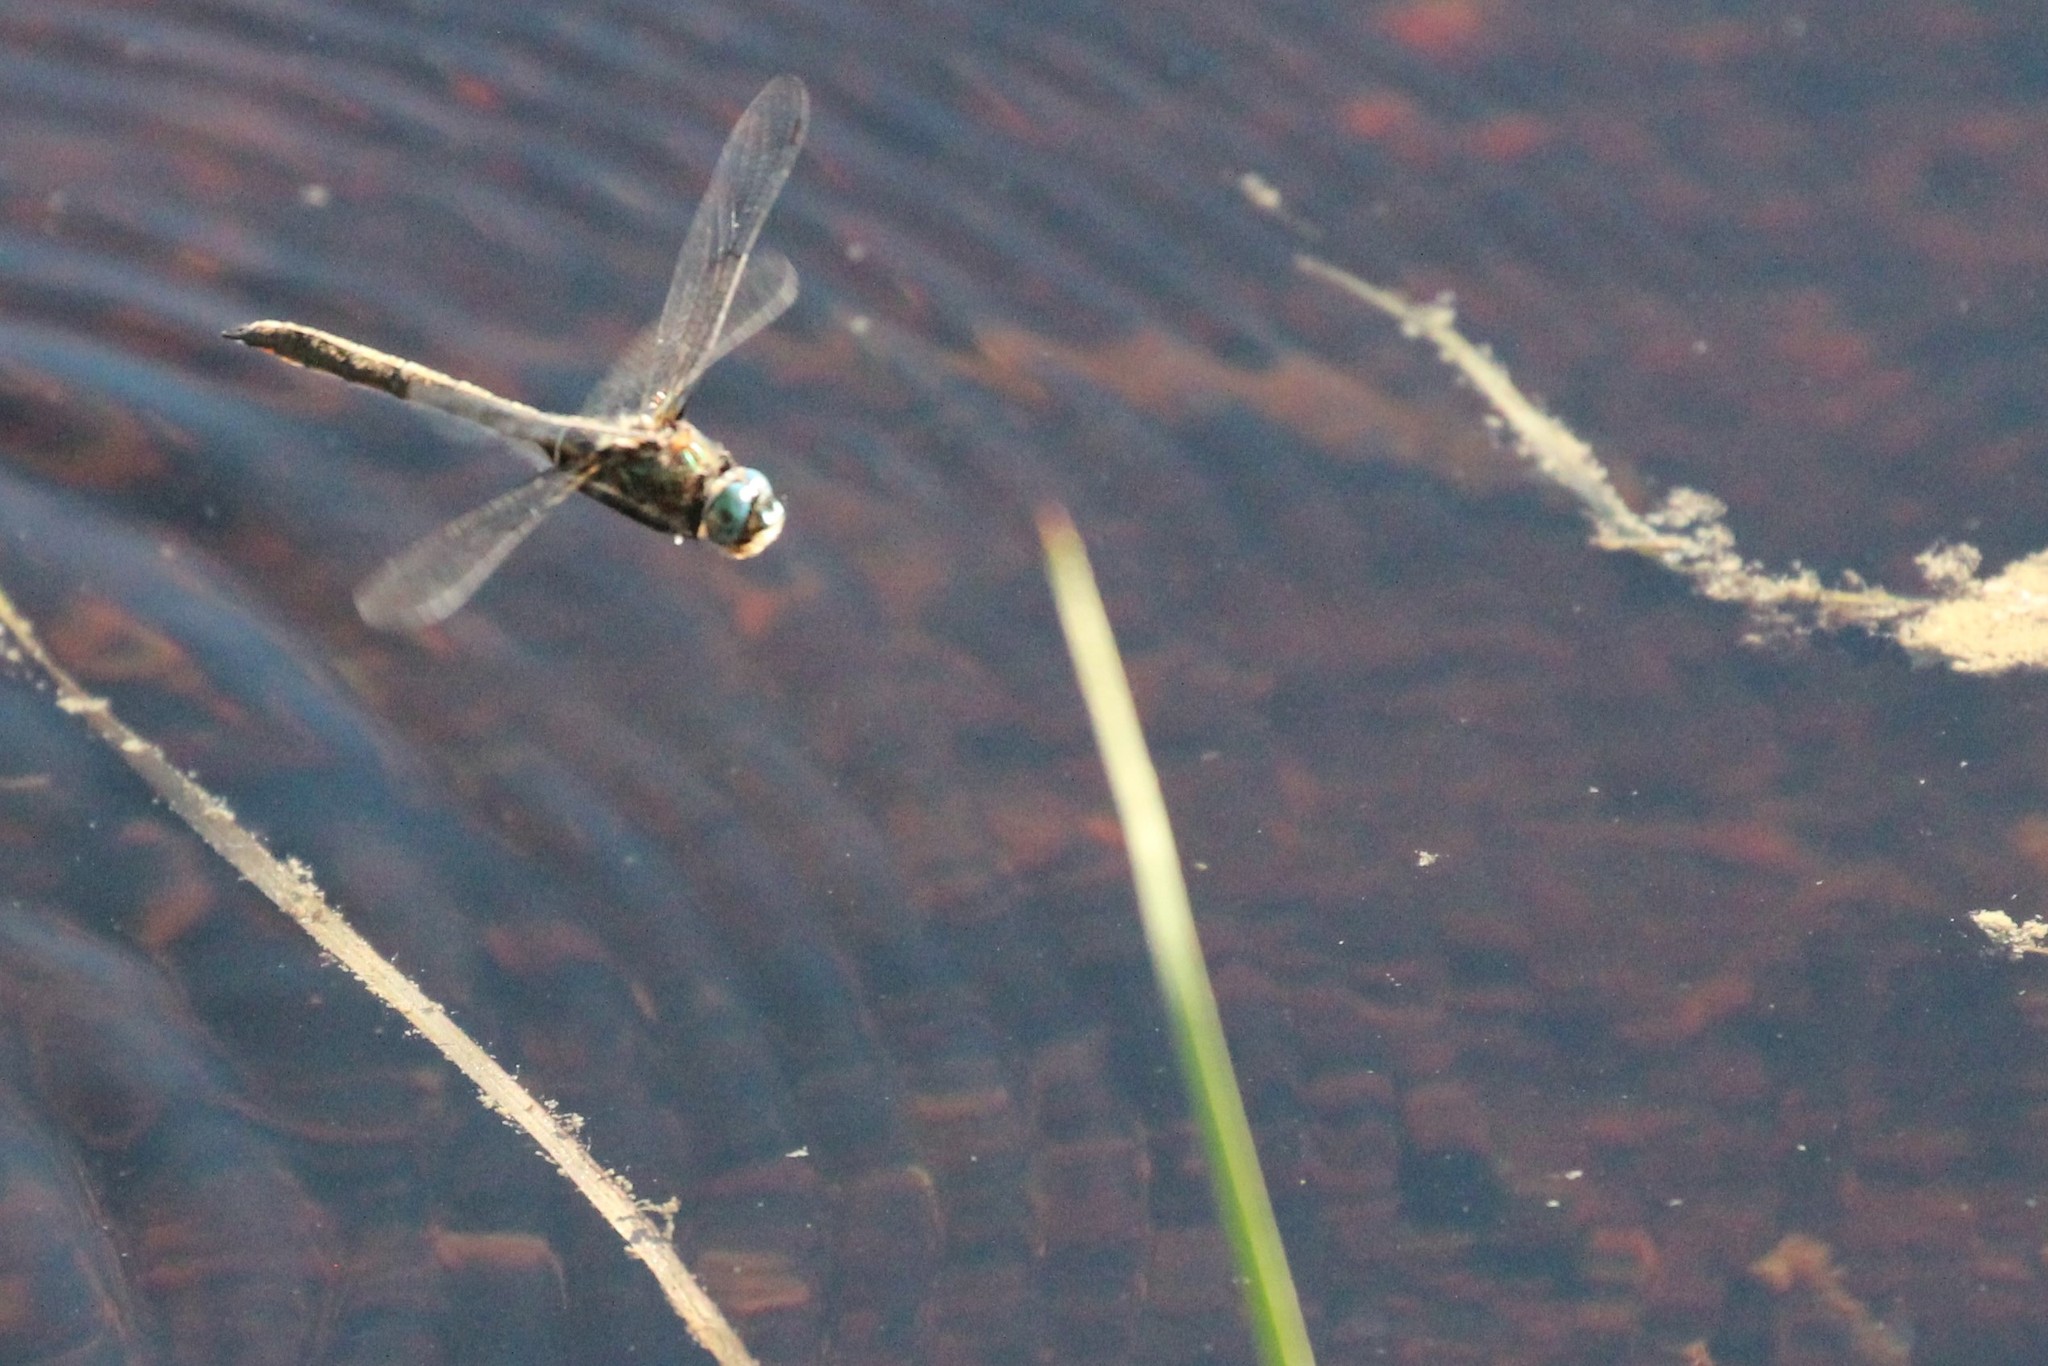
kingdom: Animalia
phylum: Arthropoda
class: Insecta
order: Odonata
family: Corduliidae
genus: Cordulia
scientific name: Cordulia shurtleffii
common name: American emerald
